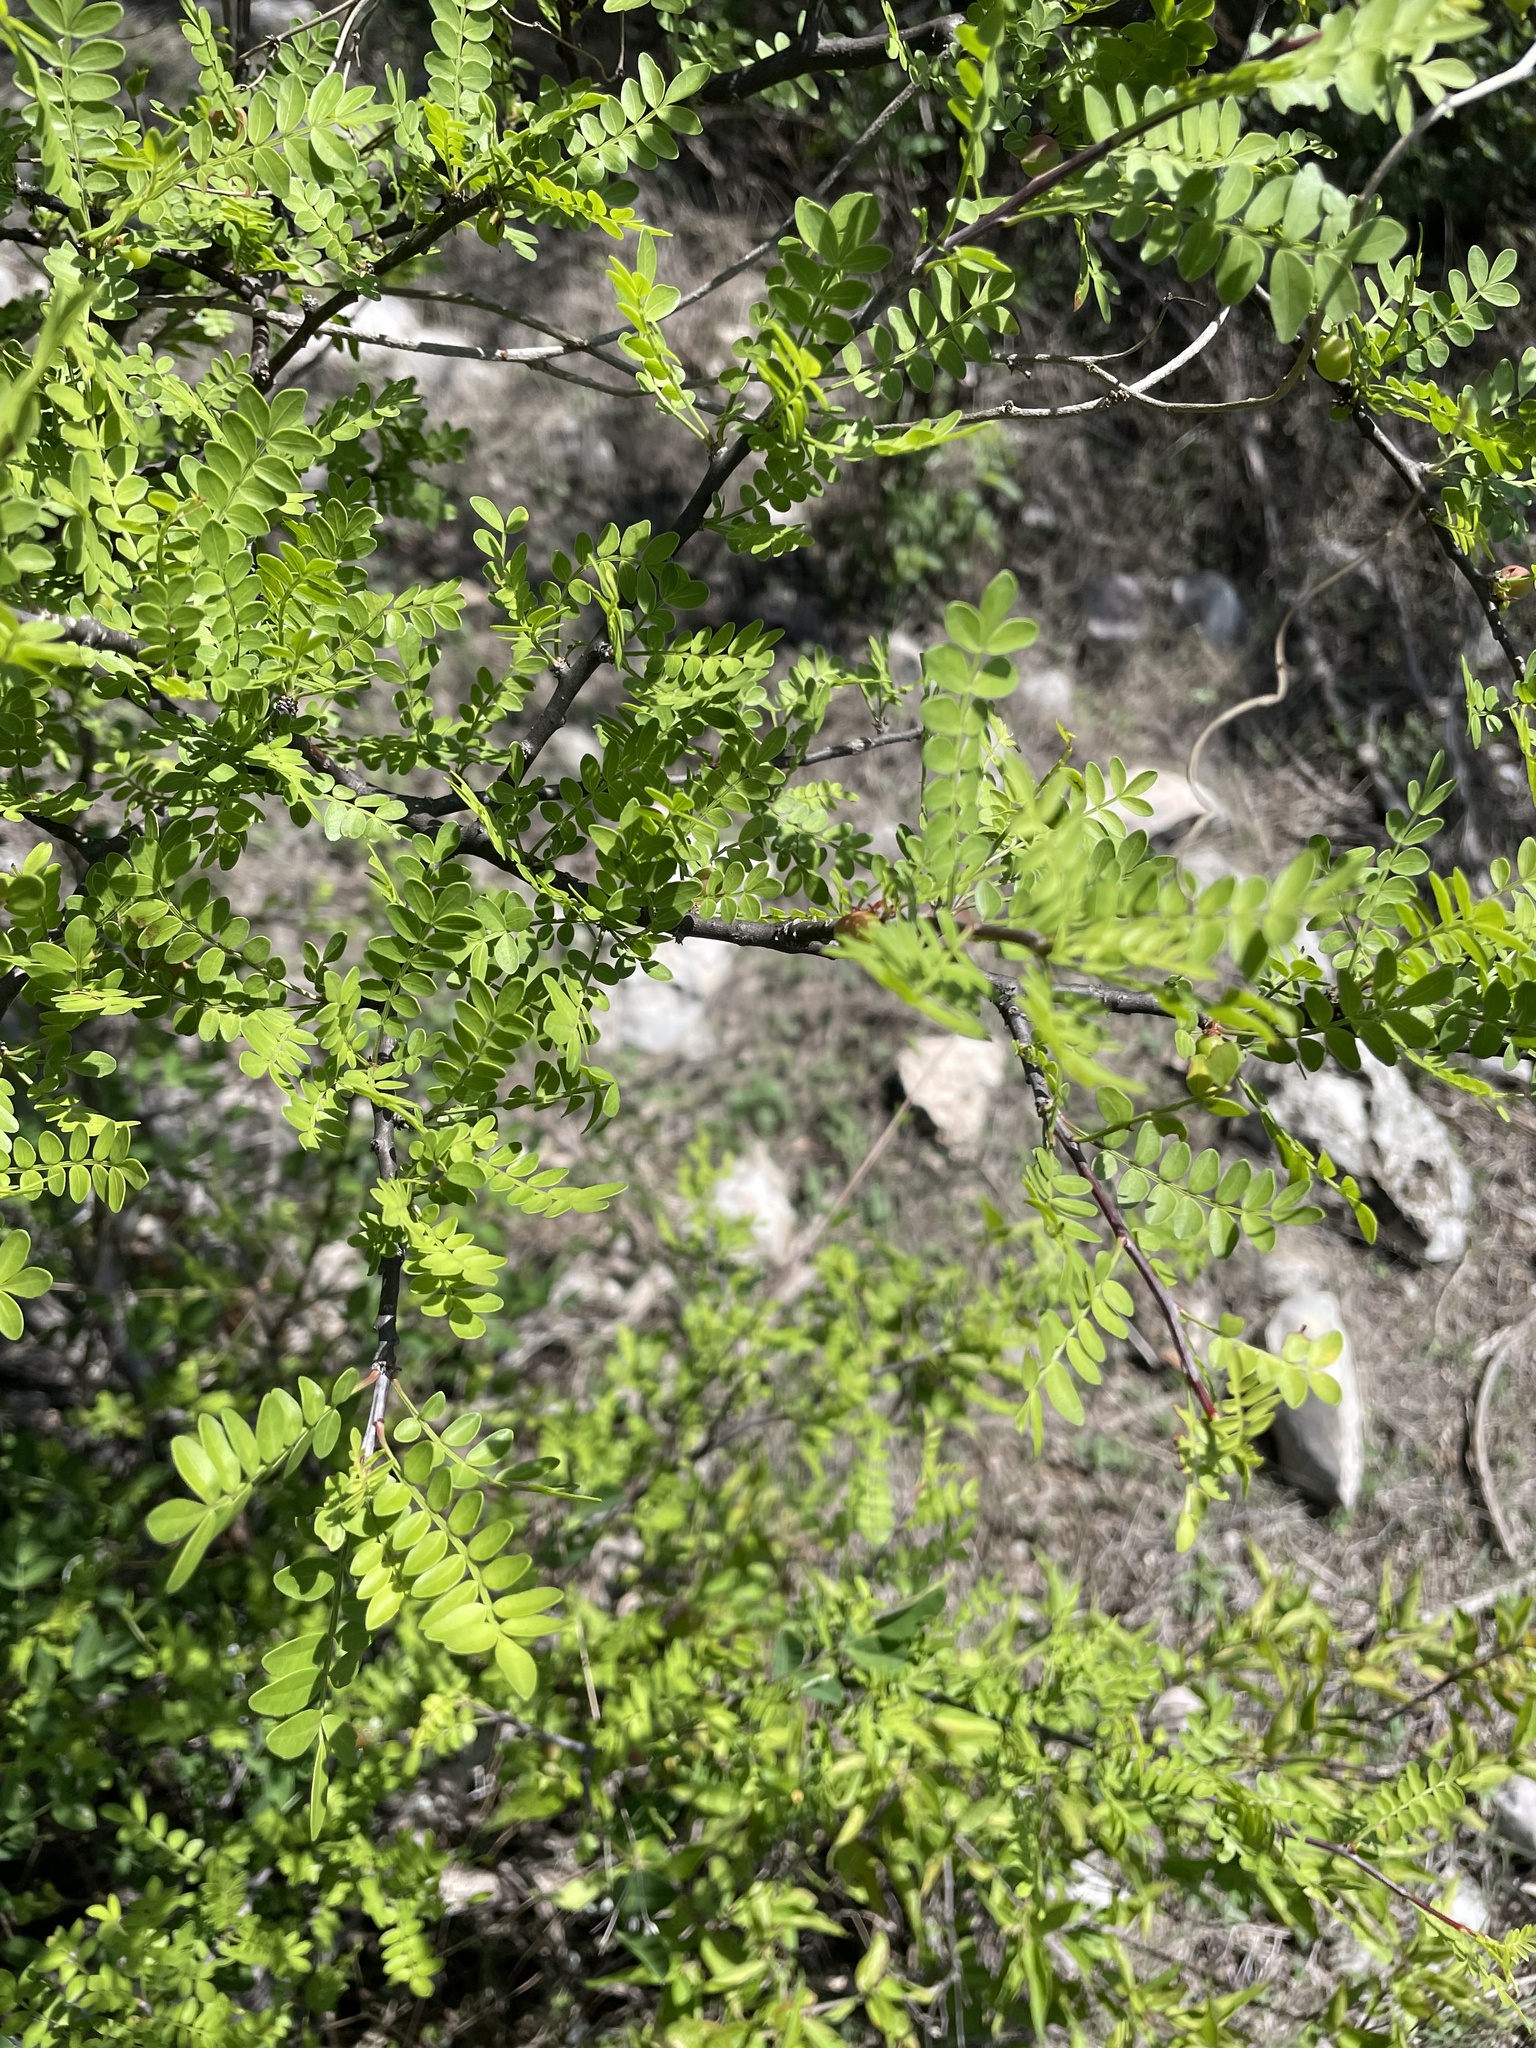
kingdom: Plantae
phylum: Tracheophyta
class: Magnoliopsida
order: Sapindales
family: Burseraceae
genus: Bursera
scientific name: Bursera aptera
